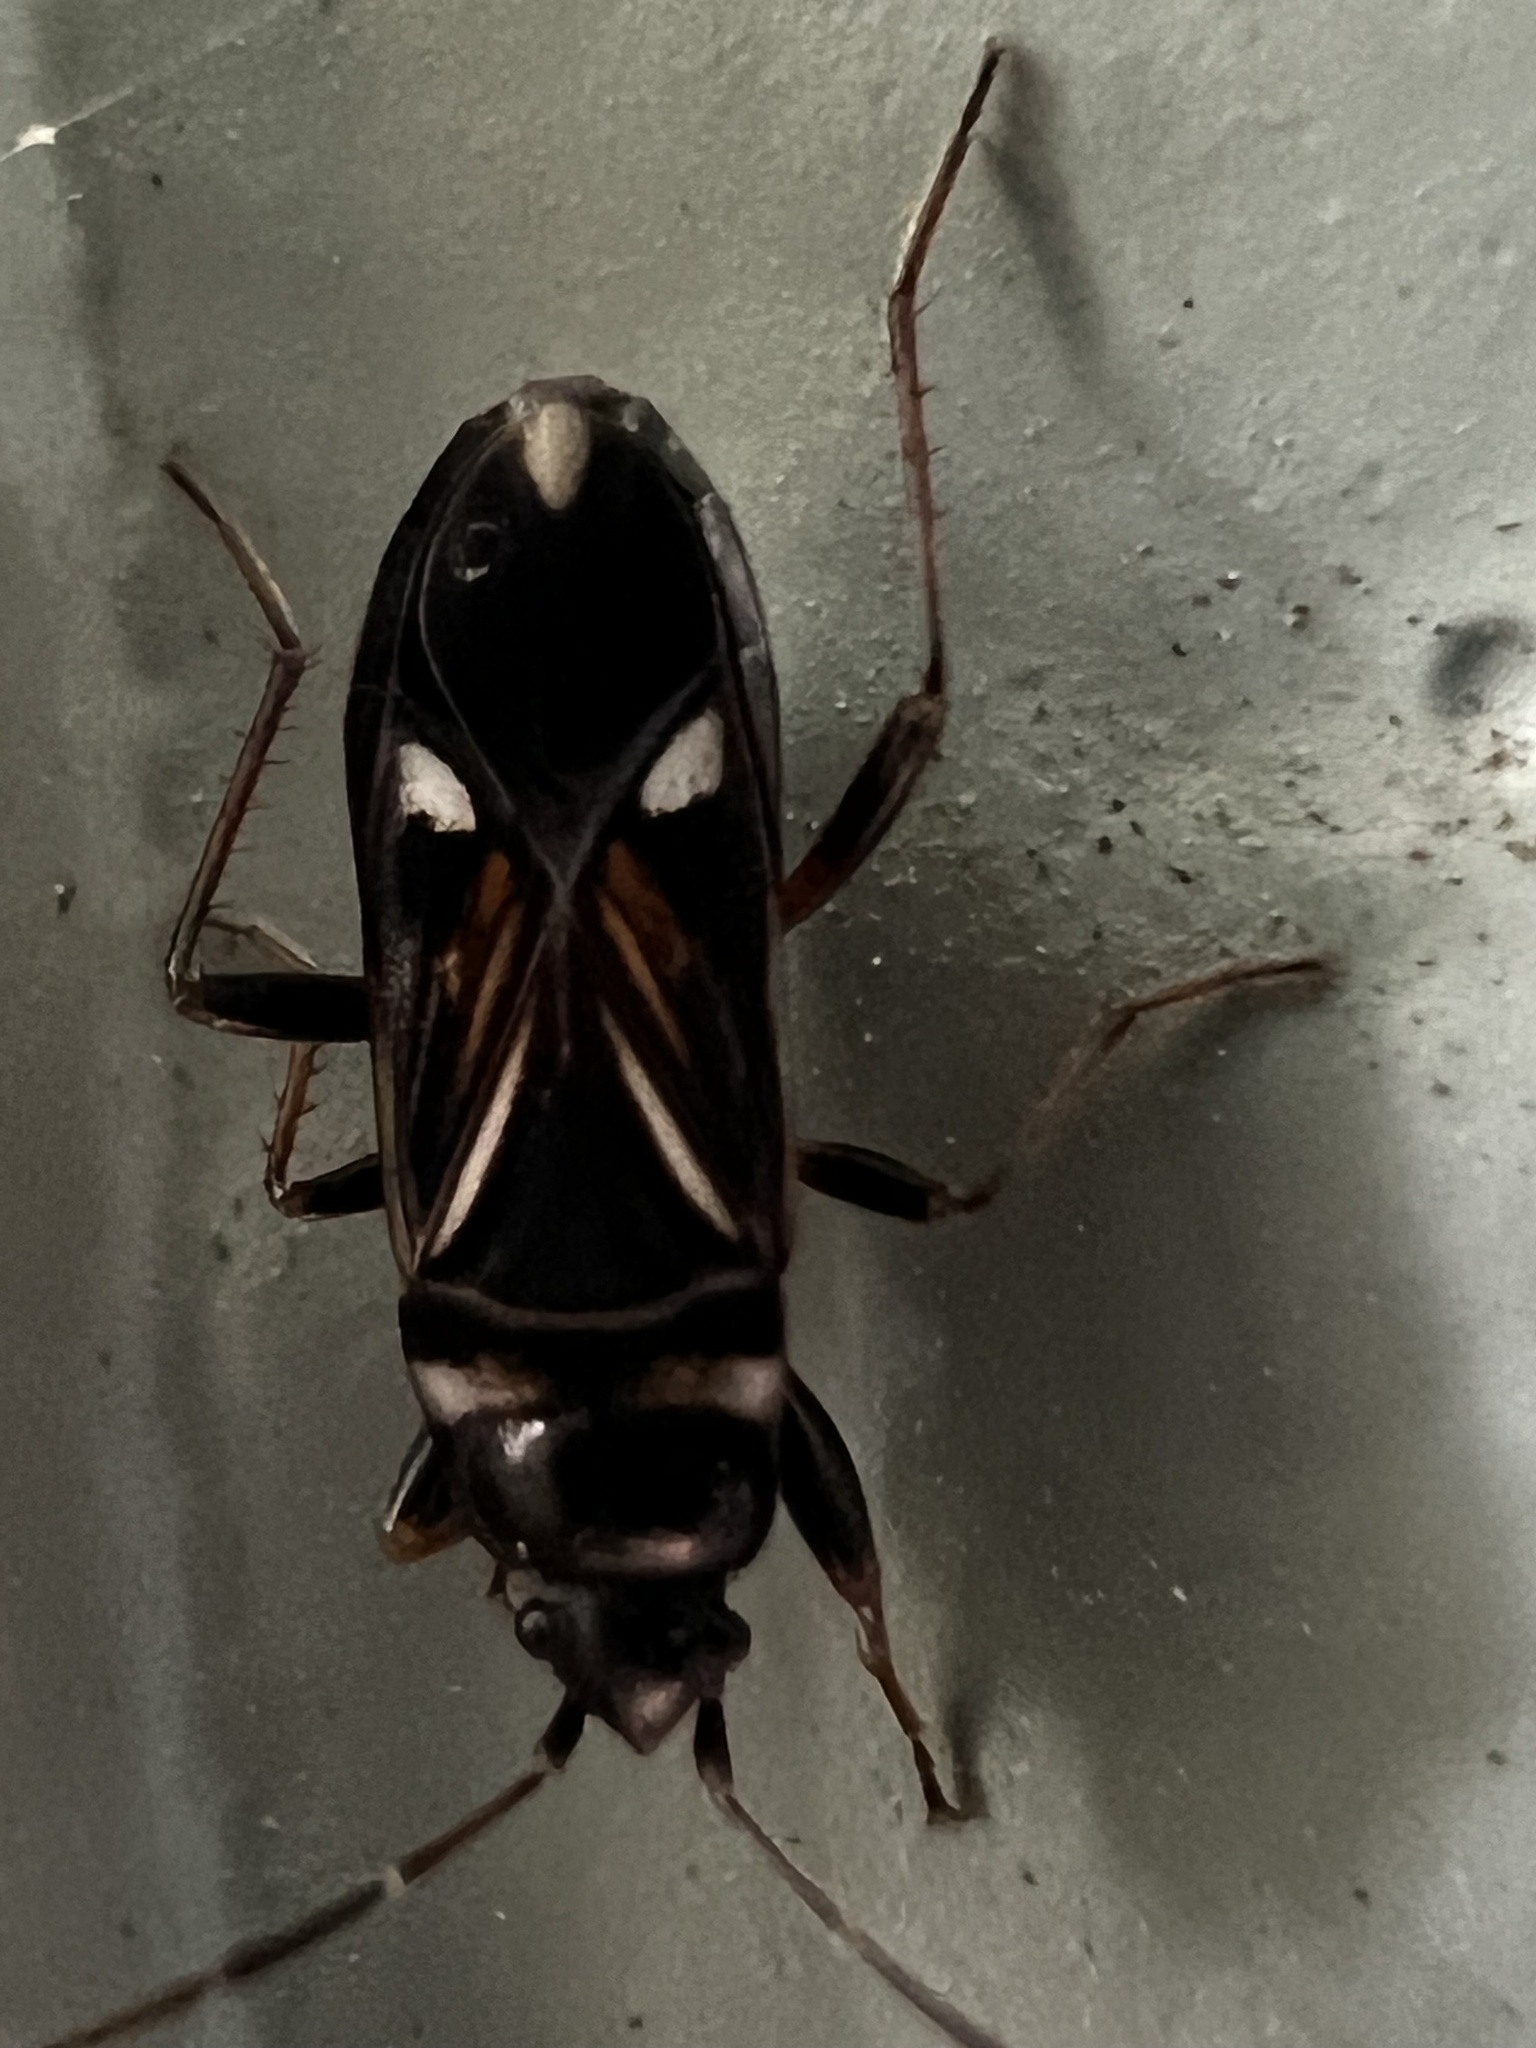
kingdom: Animalia
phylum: Arthropoda
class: Insecta
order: Hemiptera
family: Rhyparochromidae
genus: Raglius
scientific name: Raglius alboacuminatus
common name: Dirt-colored seed bug
